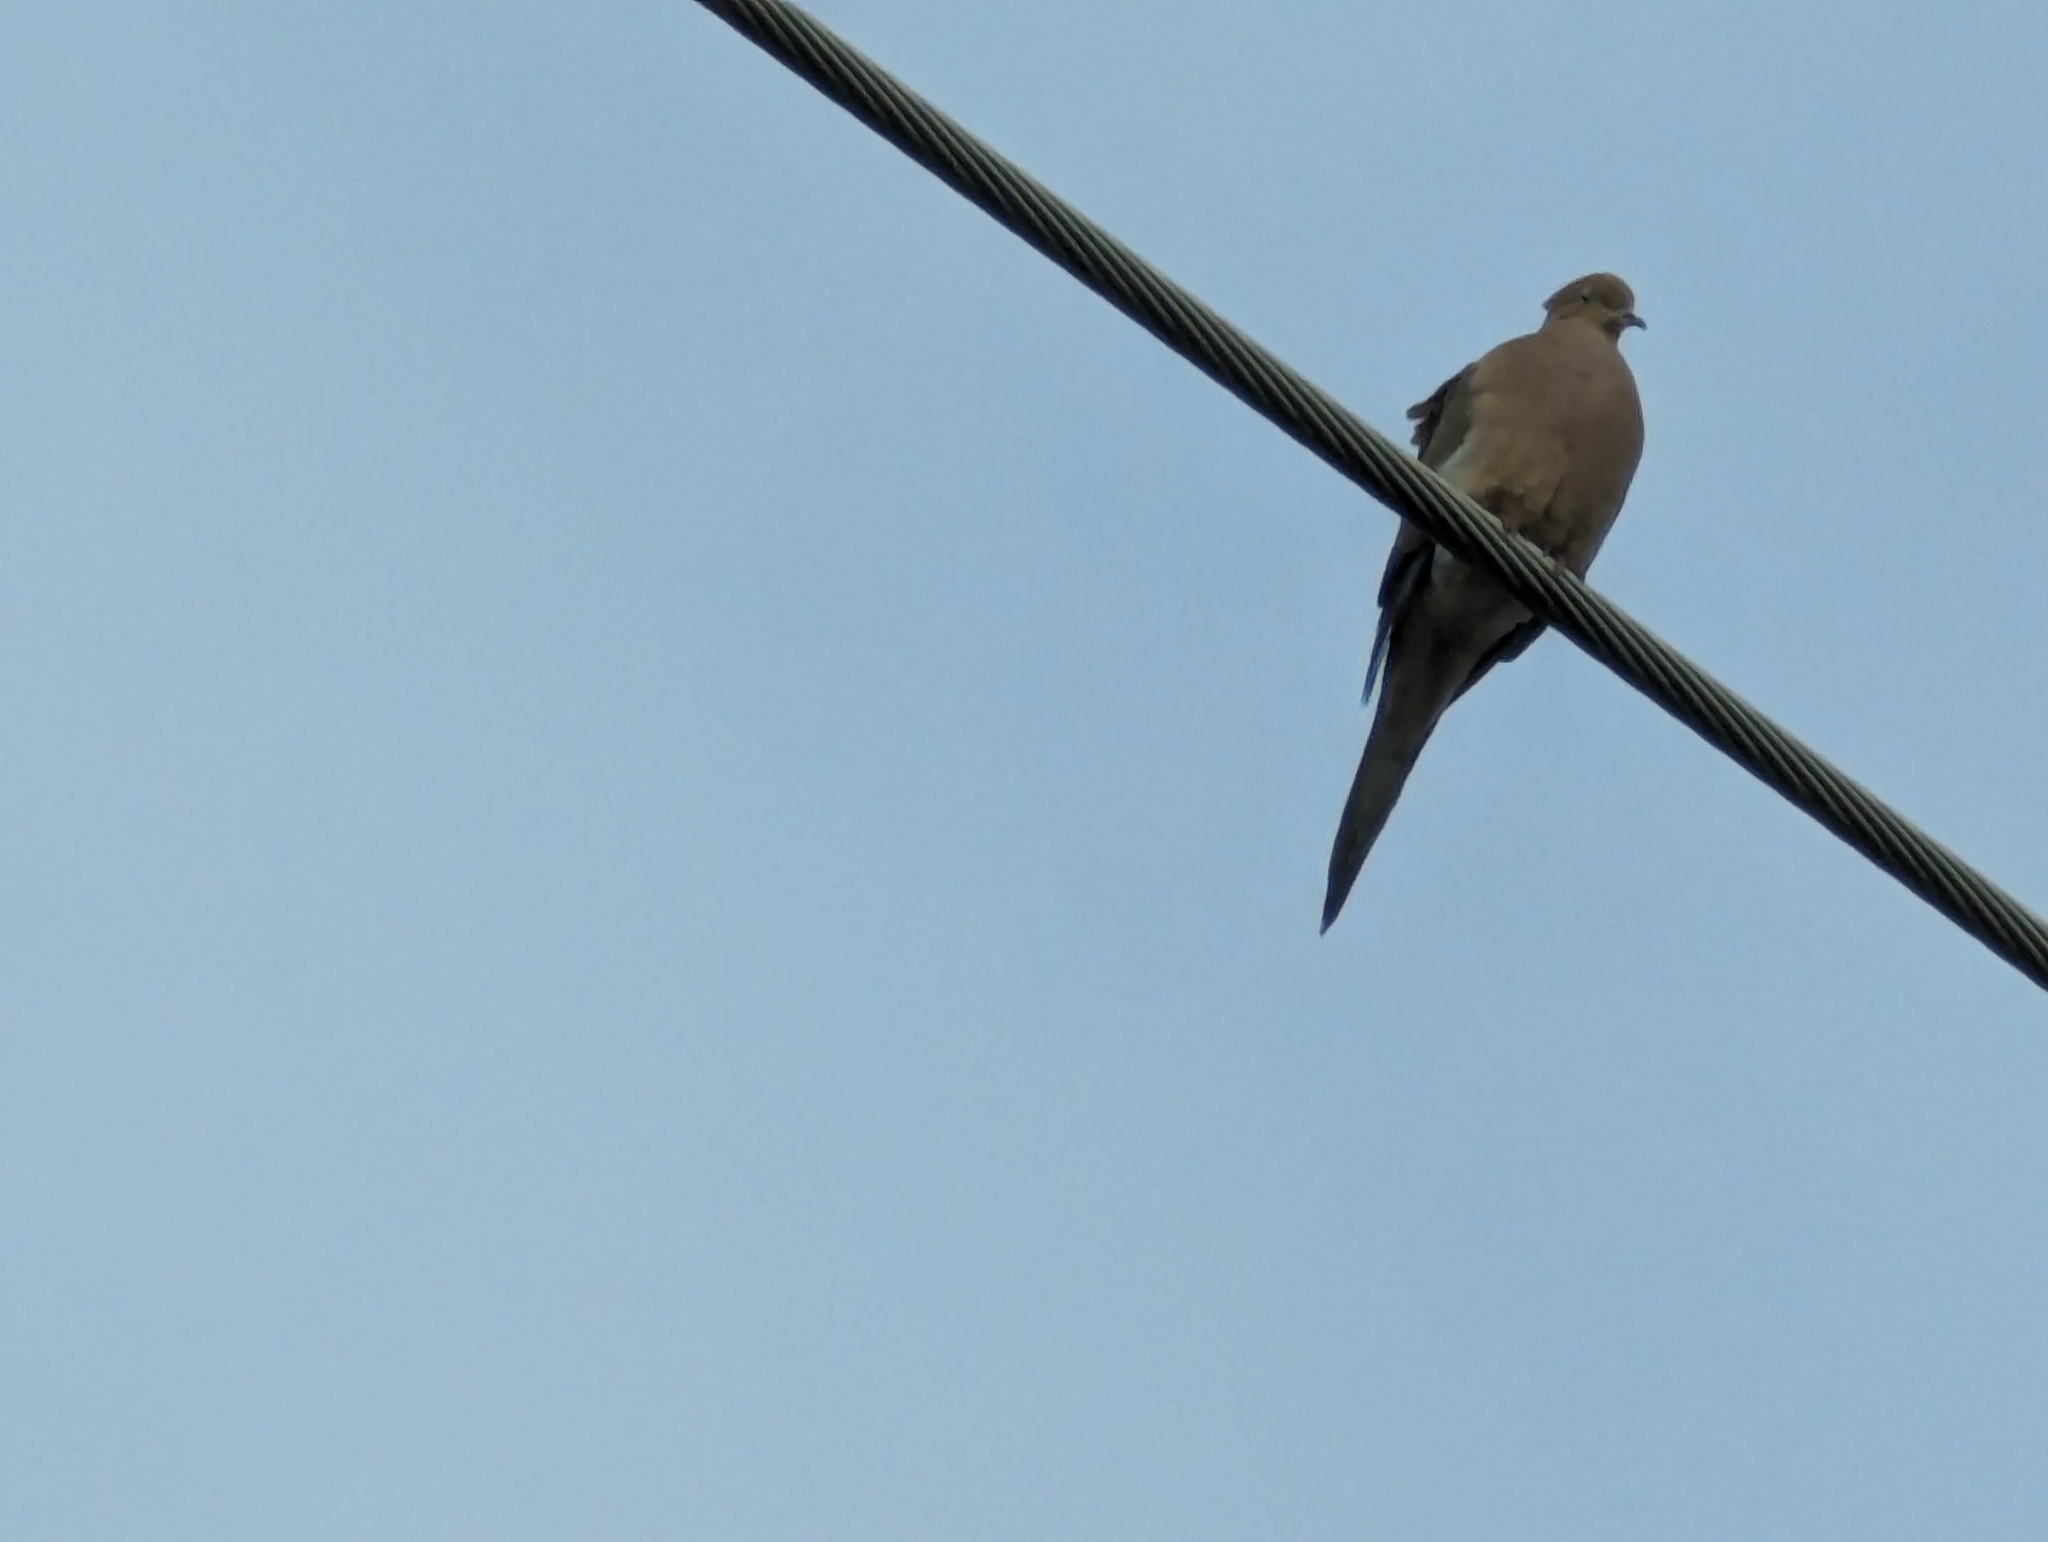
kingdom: Animalia
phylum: Chordata
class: Aves
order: Columbiformes
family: Columbidae
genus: Zenaida
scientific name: Zenaida macroura
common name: Mourning dove
